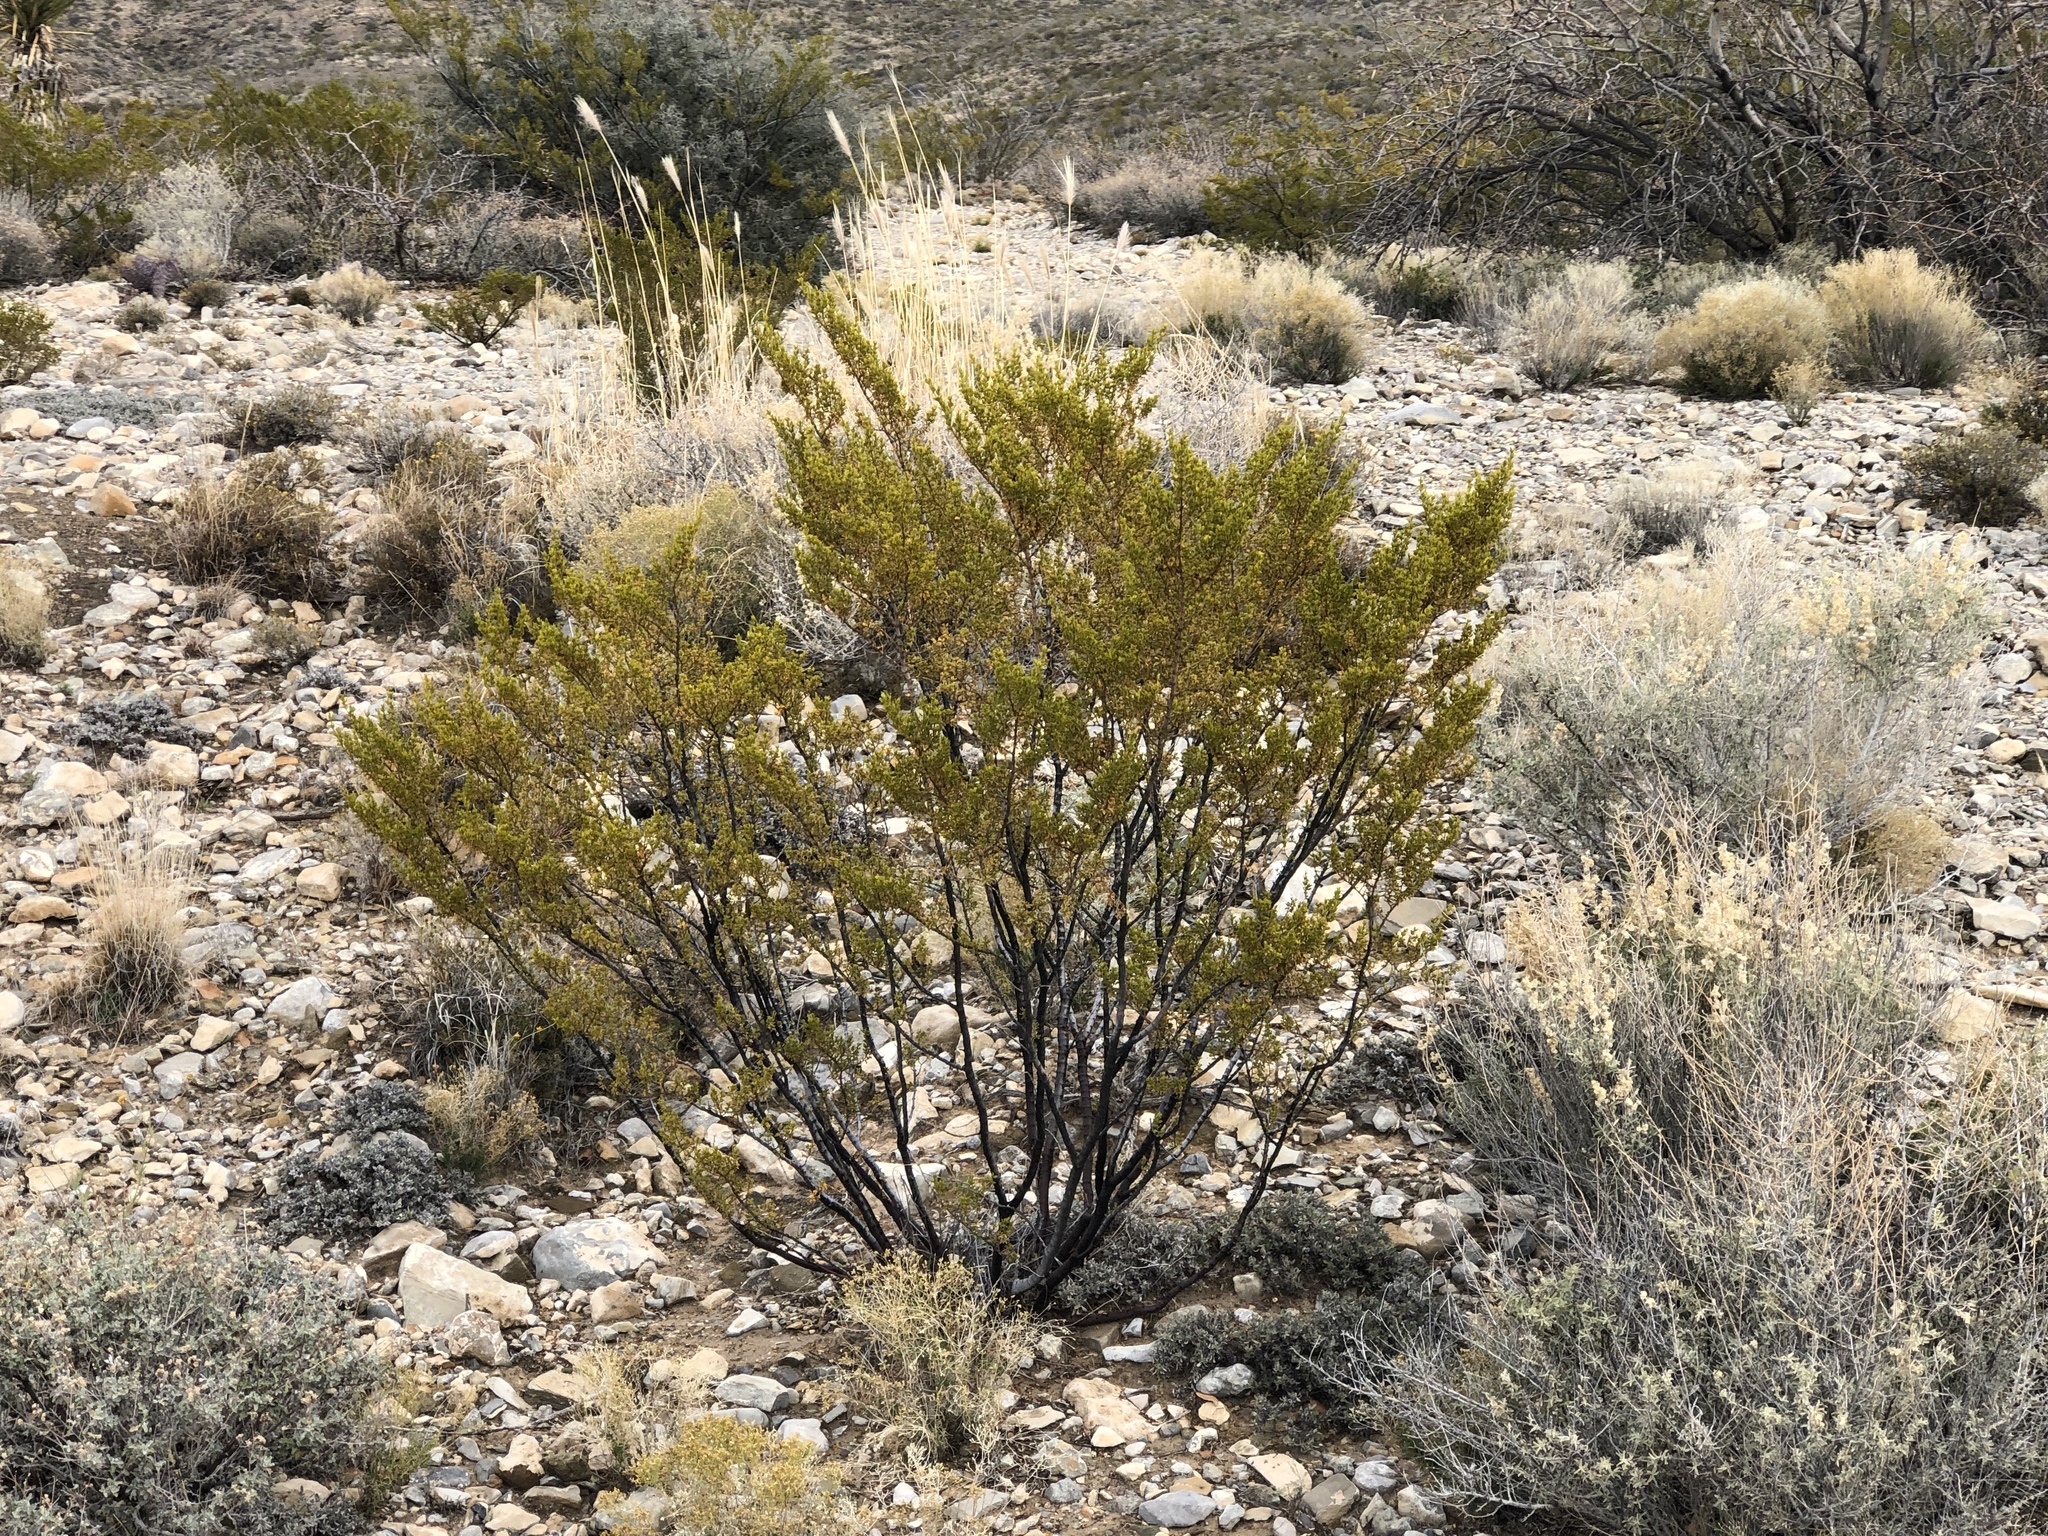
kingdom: Plantae
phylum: Tracheophyta
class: Magnoliopsida
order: Zygophyllales
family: Zygophyllaceae
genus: Larrea
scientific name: Larrea tridentata
